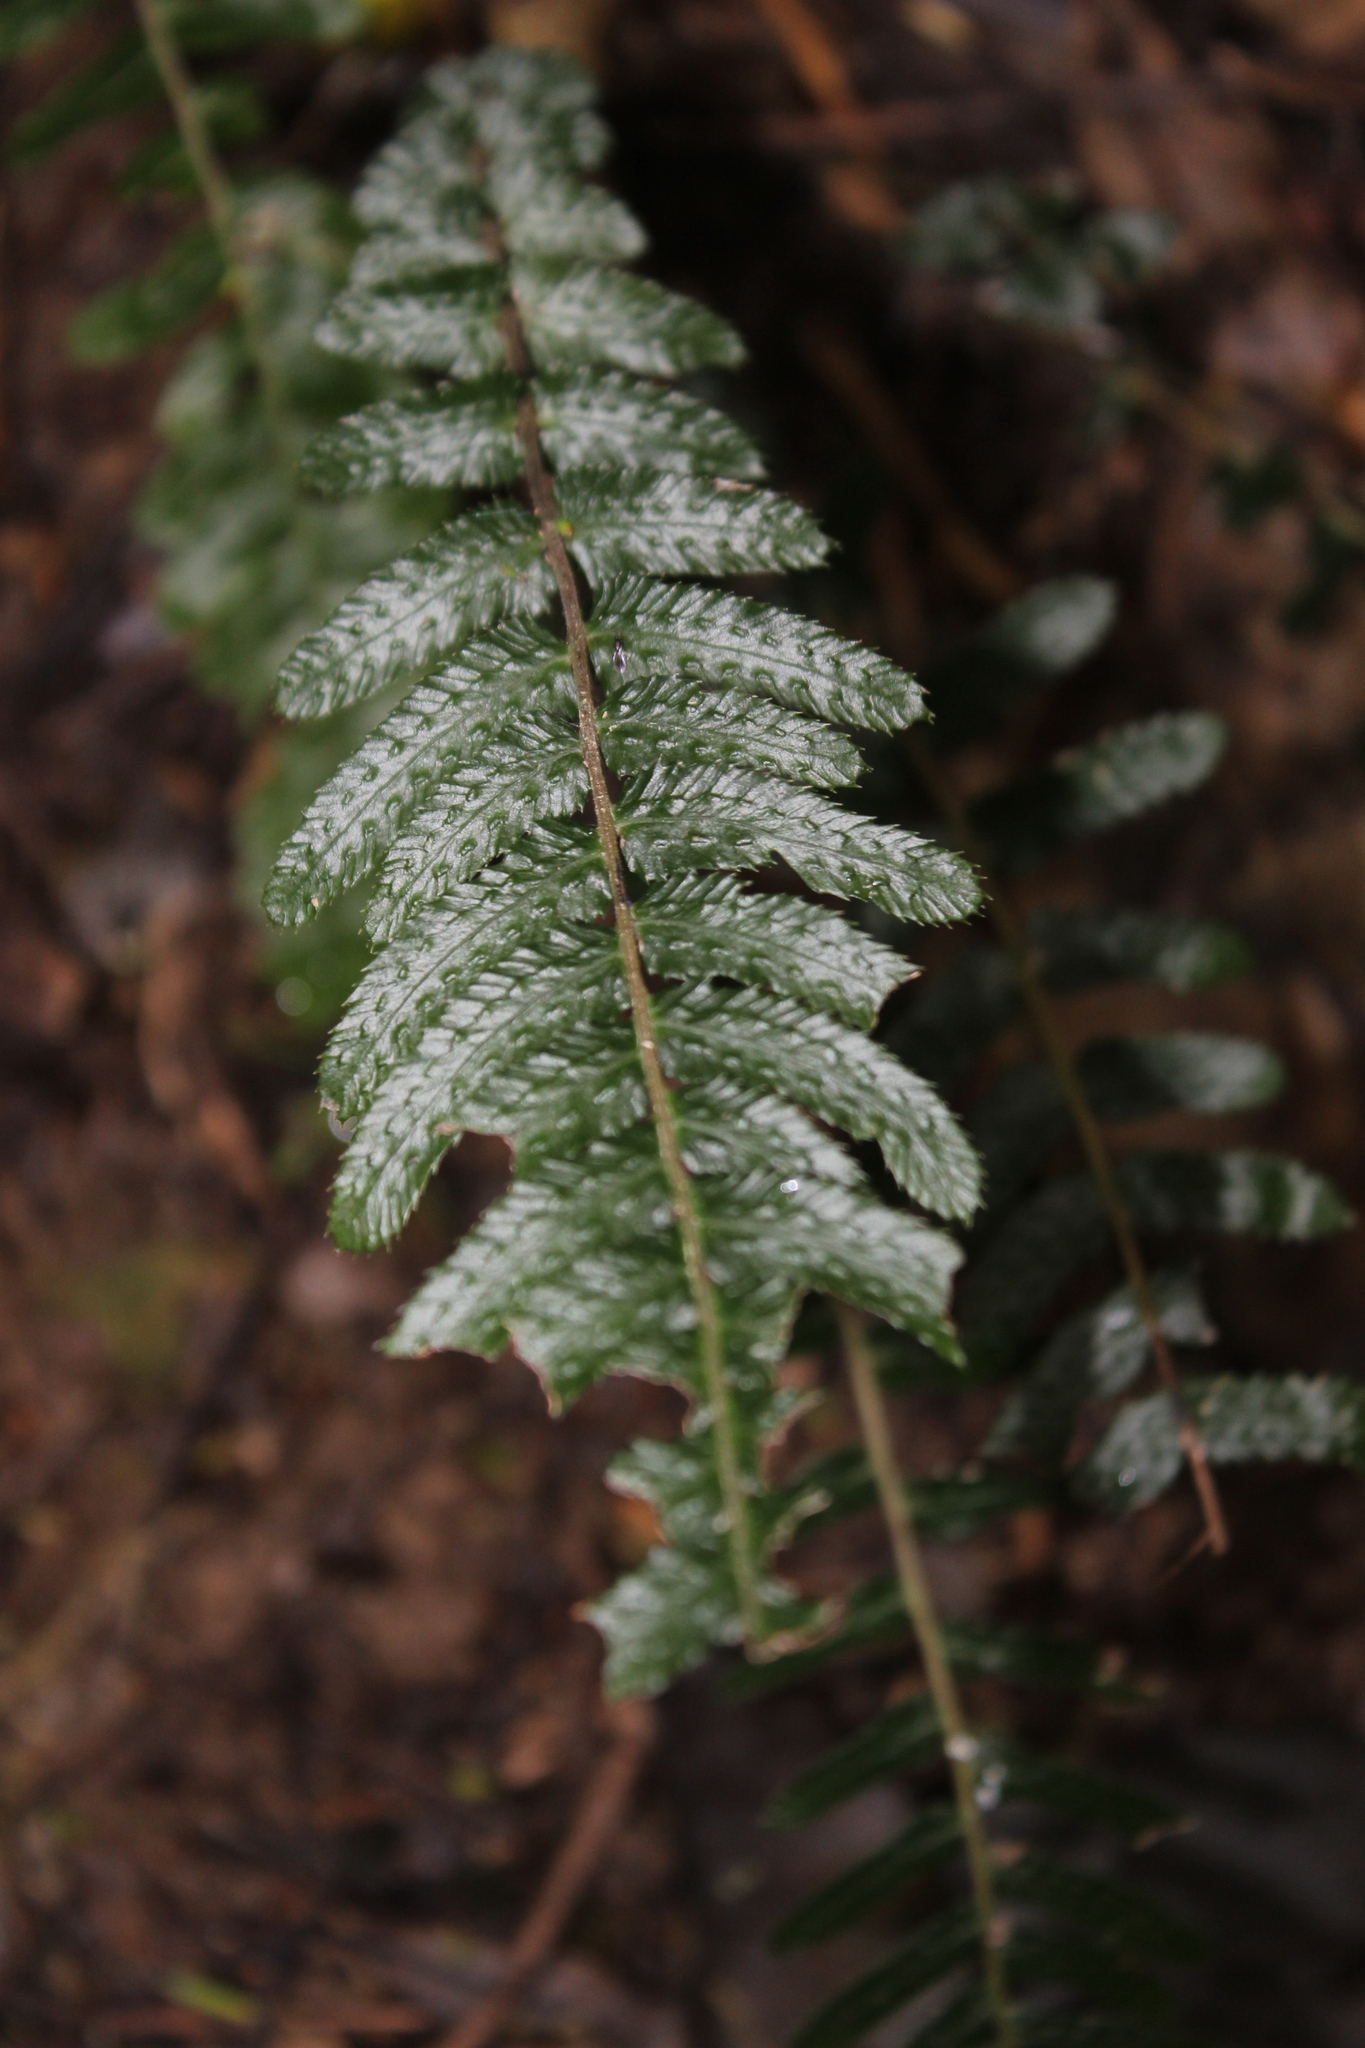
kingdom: Plantae
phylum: Tracheophyta
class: Polypodiopsida
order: Polypodiales
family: Blechnaceae
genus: Doodia
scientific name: Doodia australis
